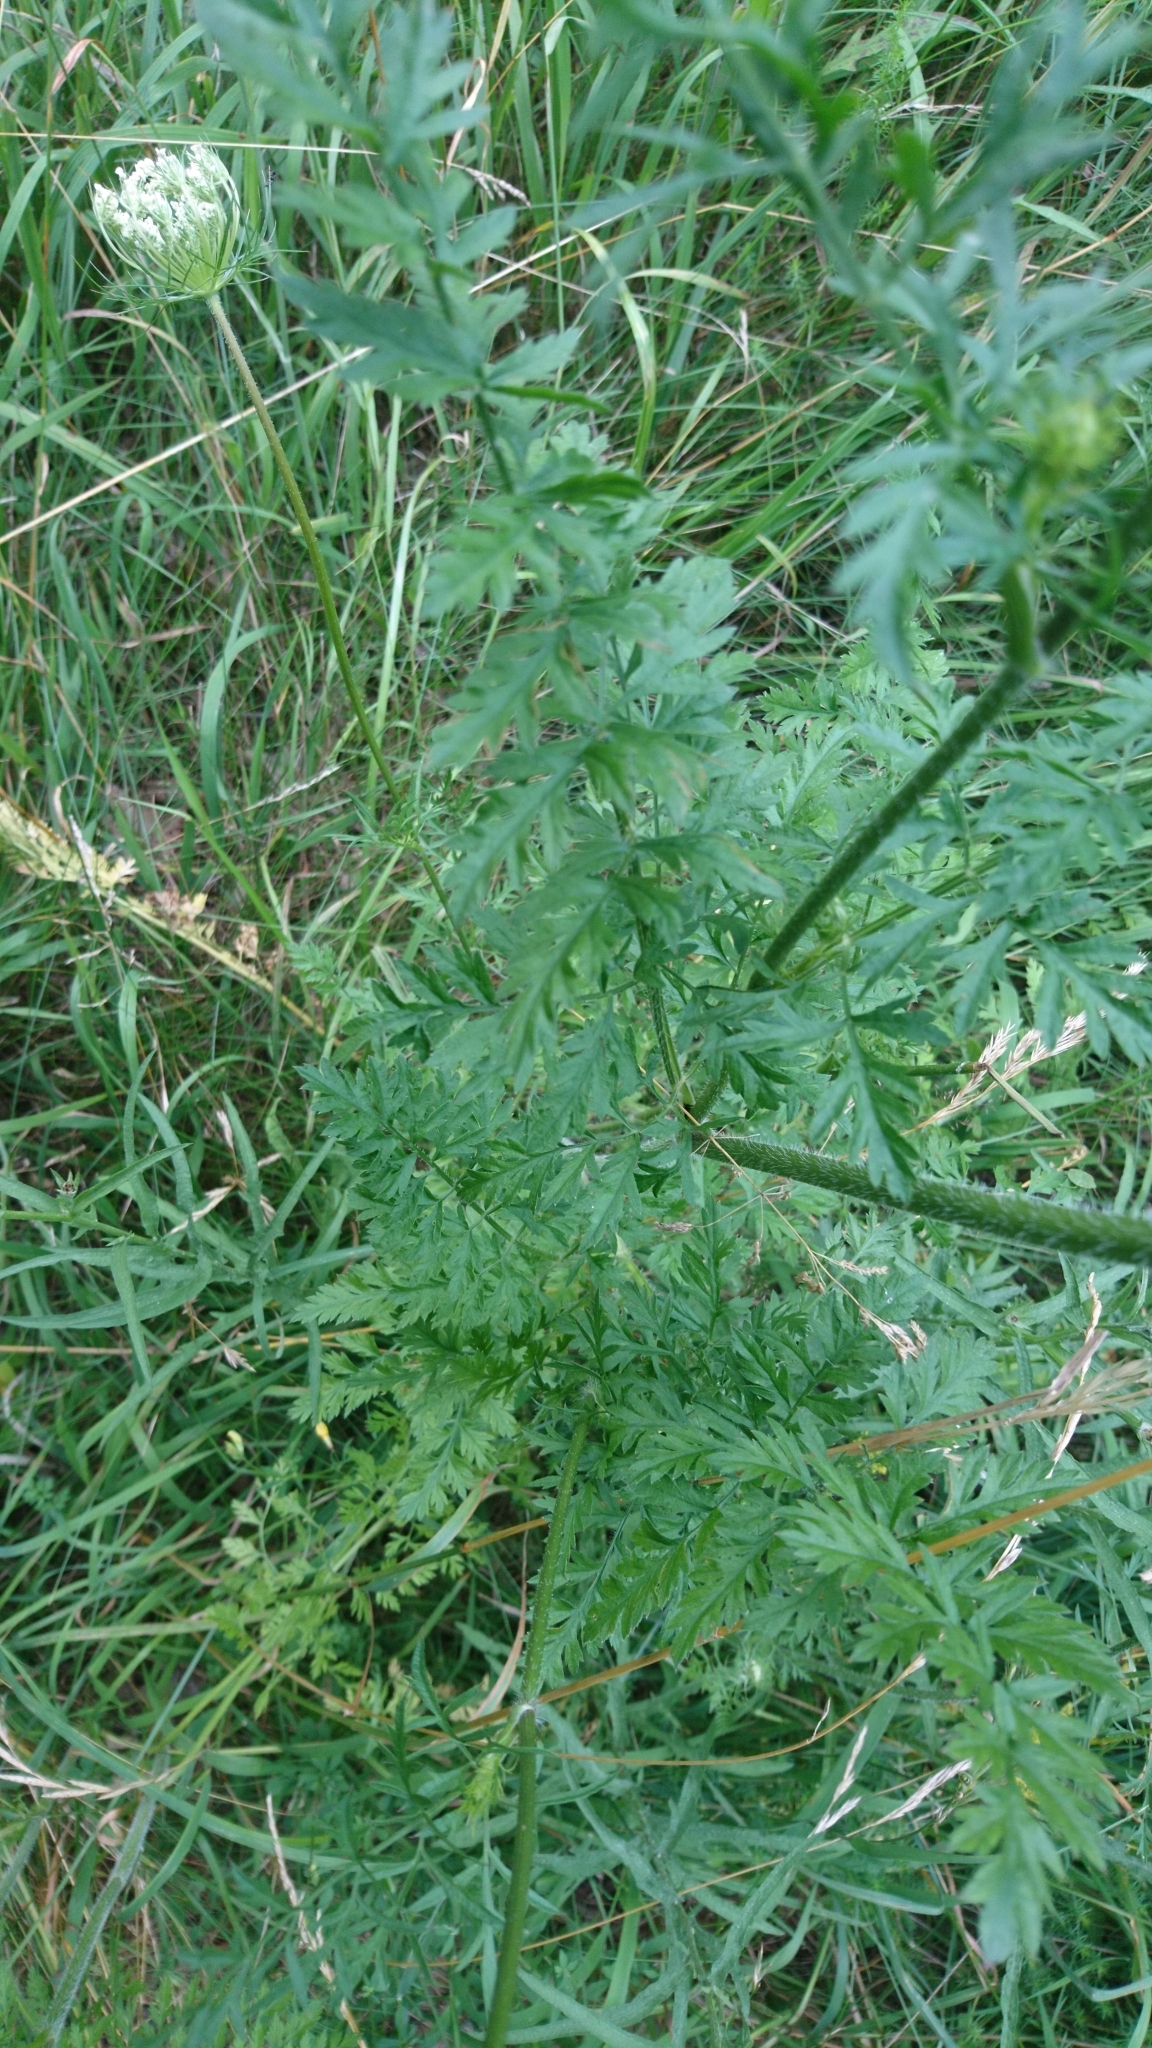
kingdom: Plantae
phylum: Tracheophyta
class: Magnoliopsida
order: Apiales
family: Apiaceae
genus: Daucus
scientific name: Daucus carota
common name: Wild carrot
